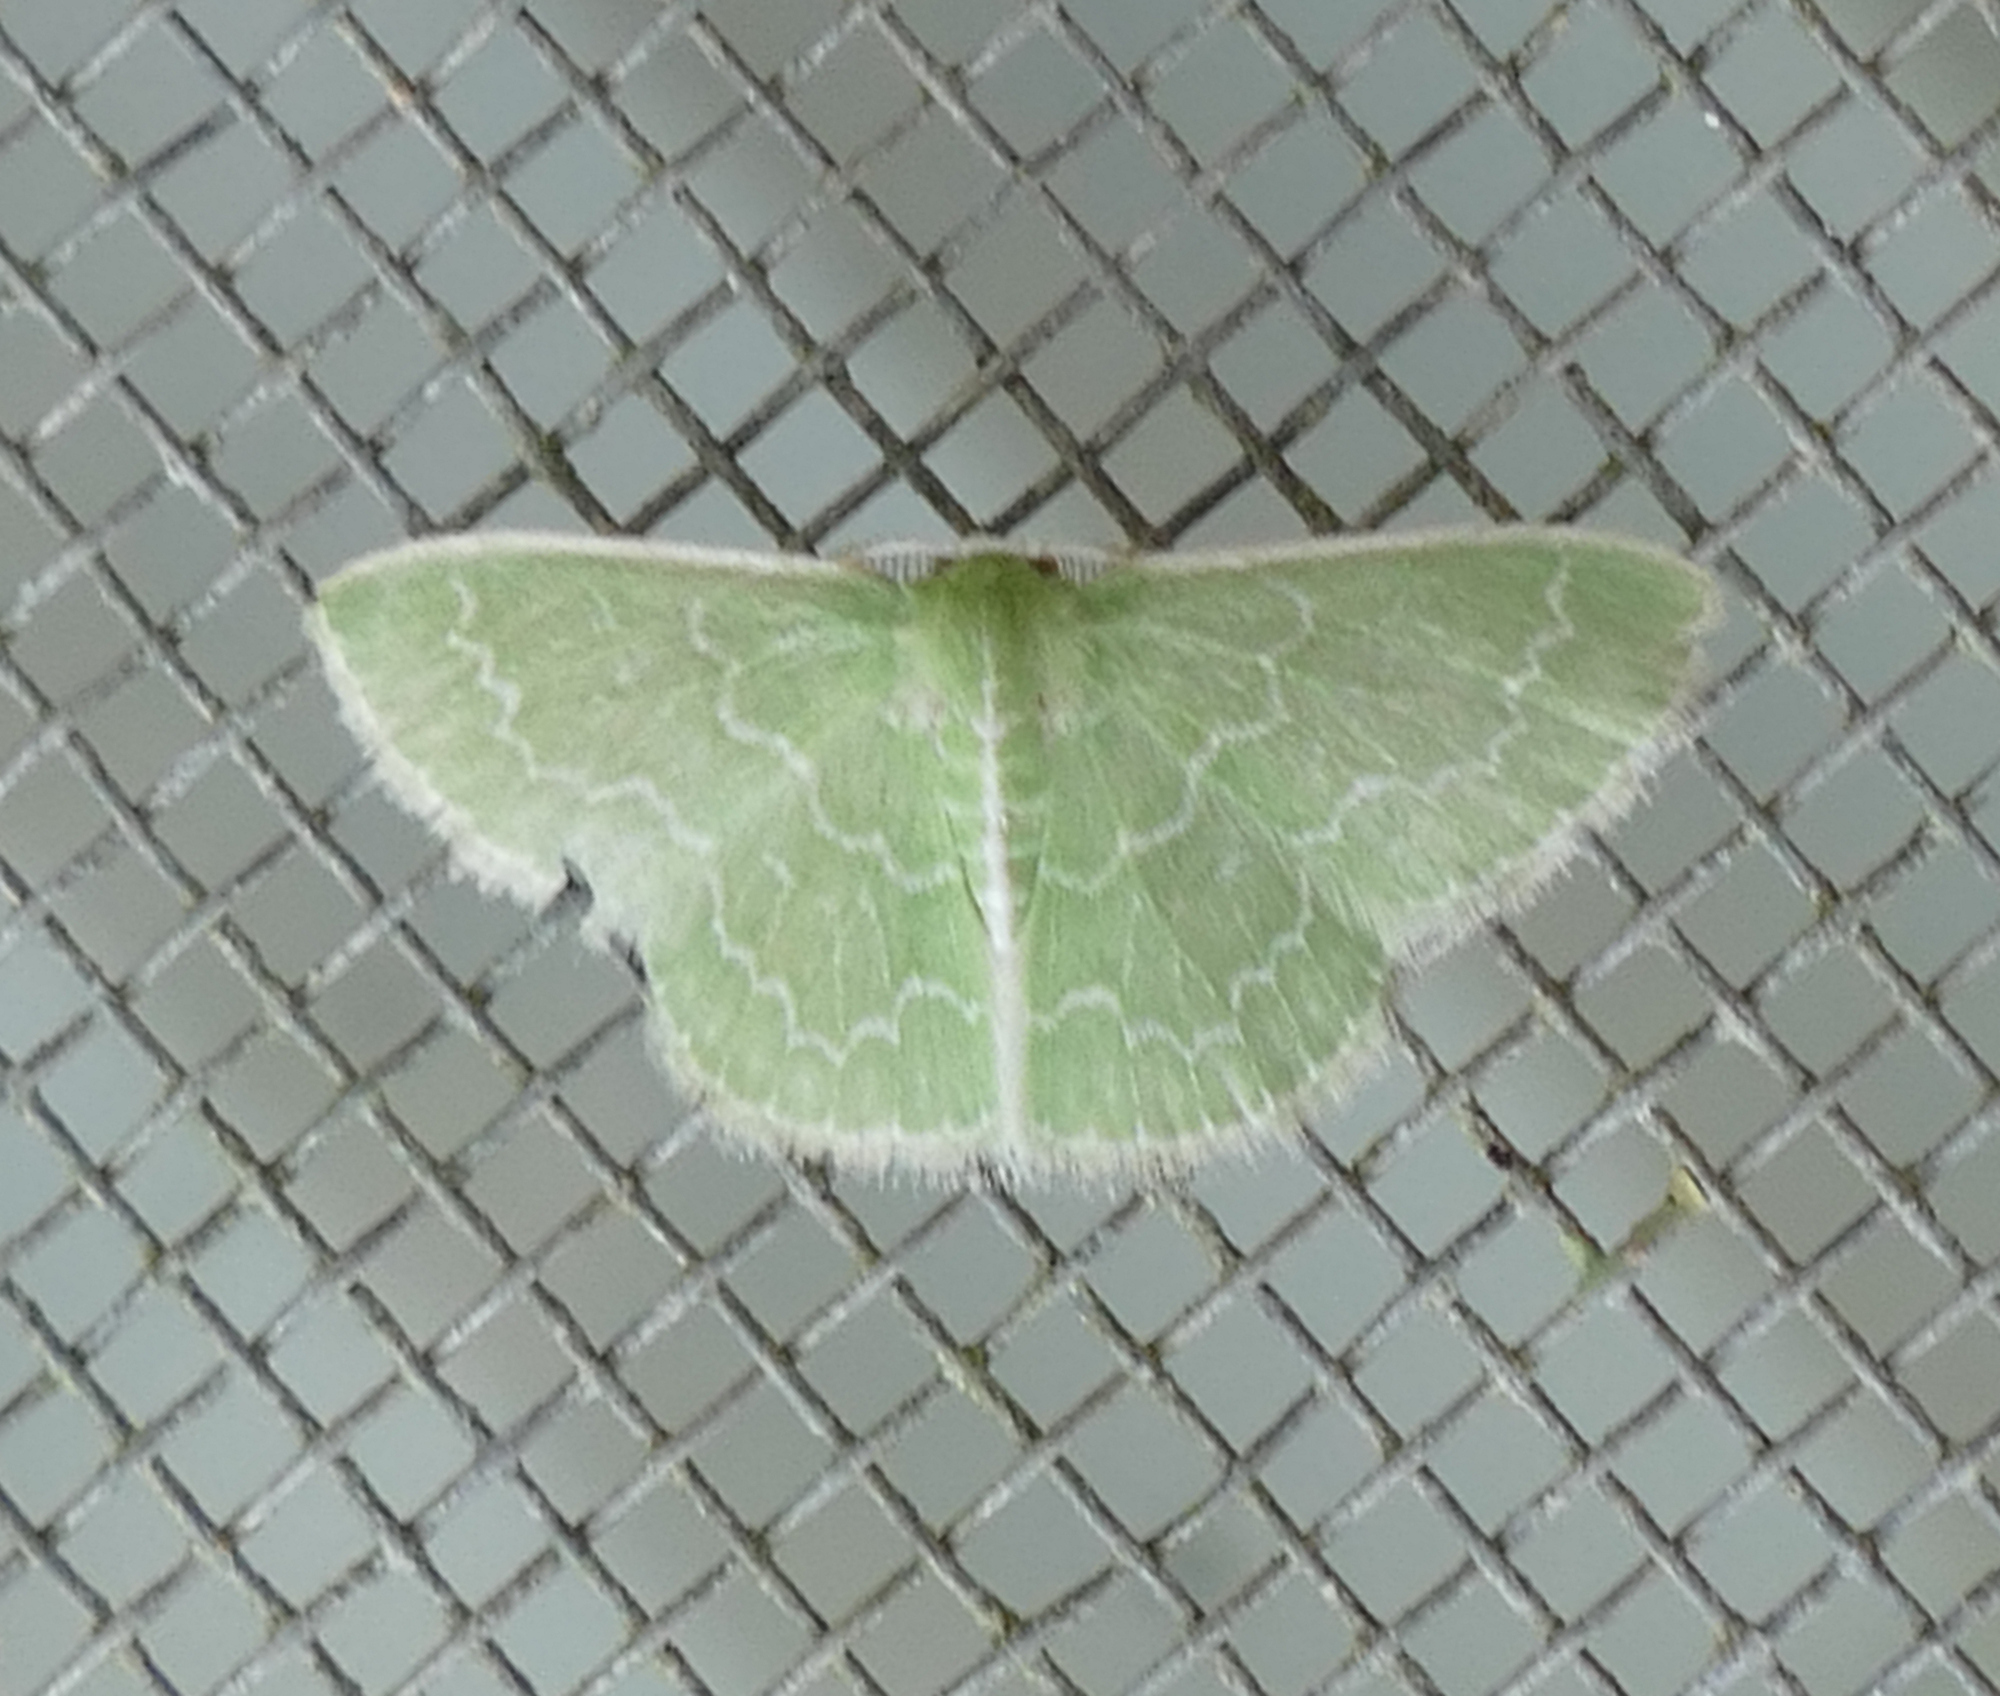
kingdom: Animalia
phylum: Arthropoda
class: Insecta
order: Lepidoptera
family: Geometridae
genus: Synchlora
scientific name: Synchlora frondaria
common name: Southern emerald
